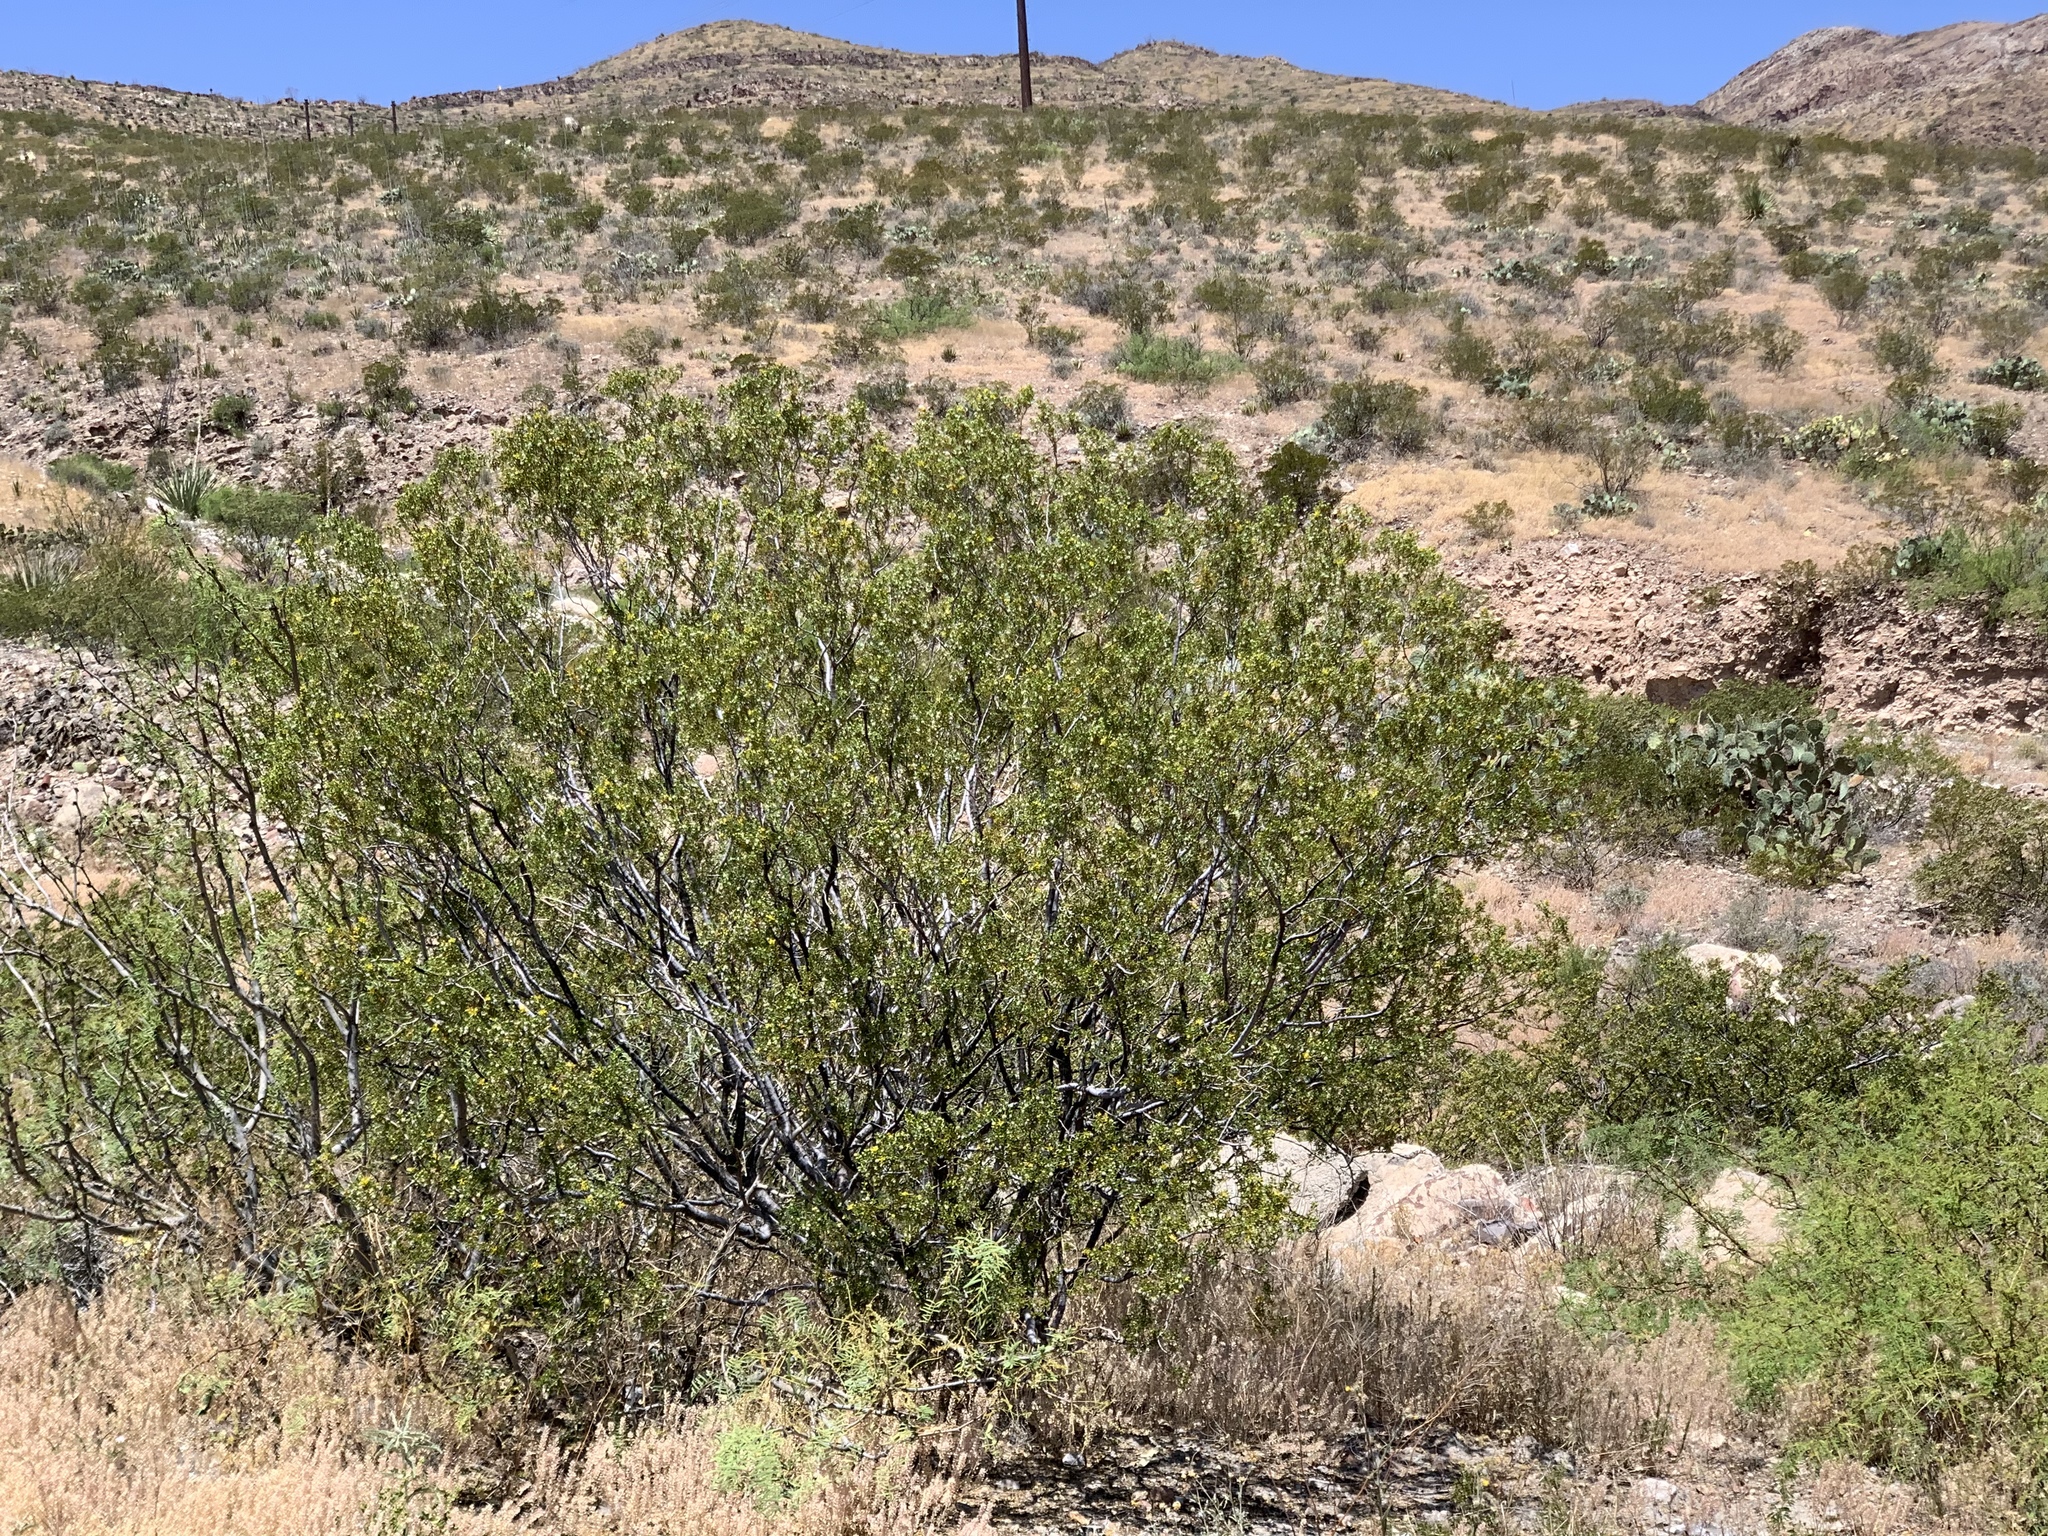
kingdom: Plantae
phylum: Tracheophyta
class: Magnoliopsida
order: Zygophyllales
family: Zygophyllaceae
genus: Larrea
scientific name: Larrea tridentata
